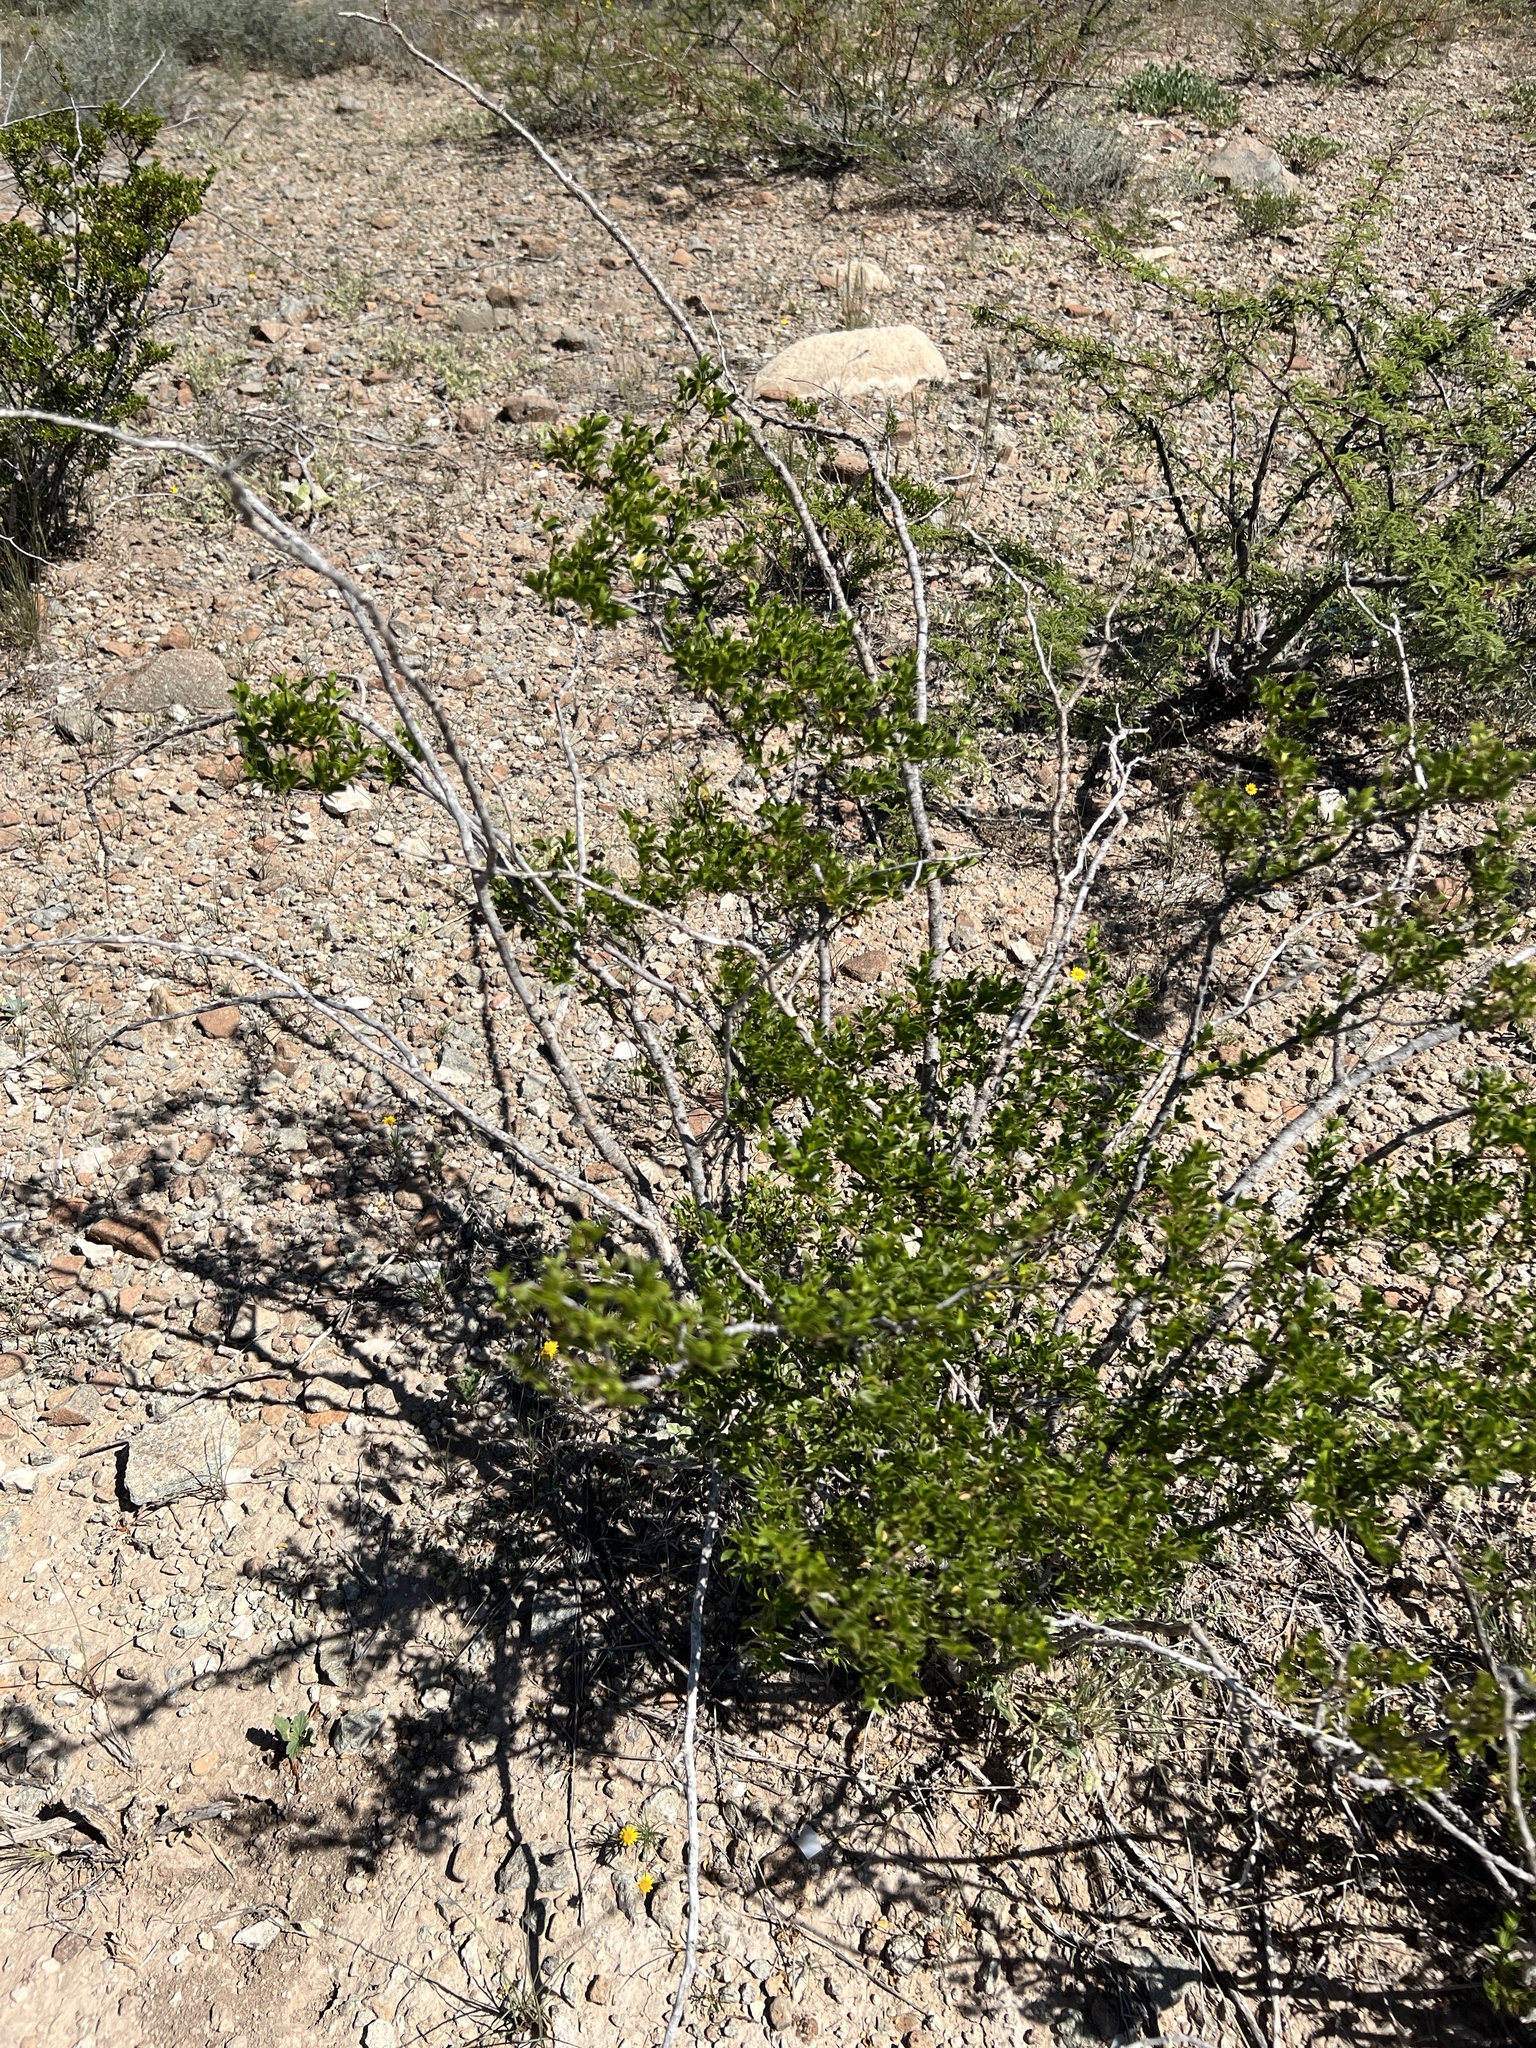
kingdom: Plantae
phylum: Tracheophyta
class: Magnoliopsida
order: Zygophyllales
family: Zygophyllaceae
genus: Larrea
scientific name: Larrea tridentata
